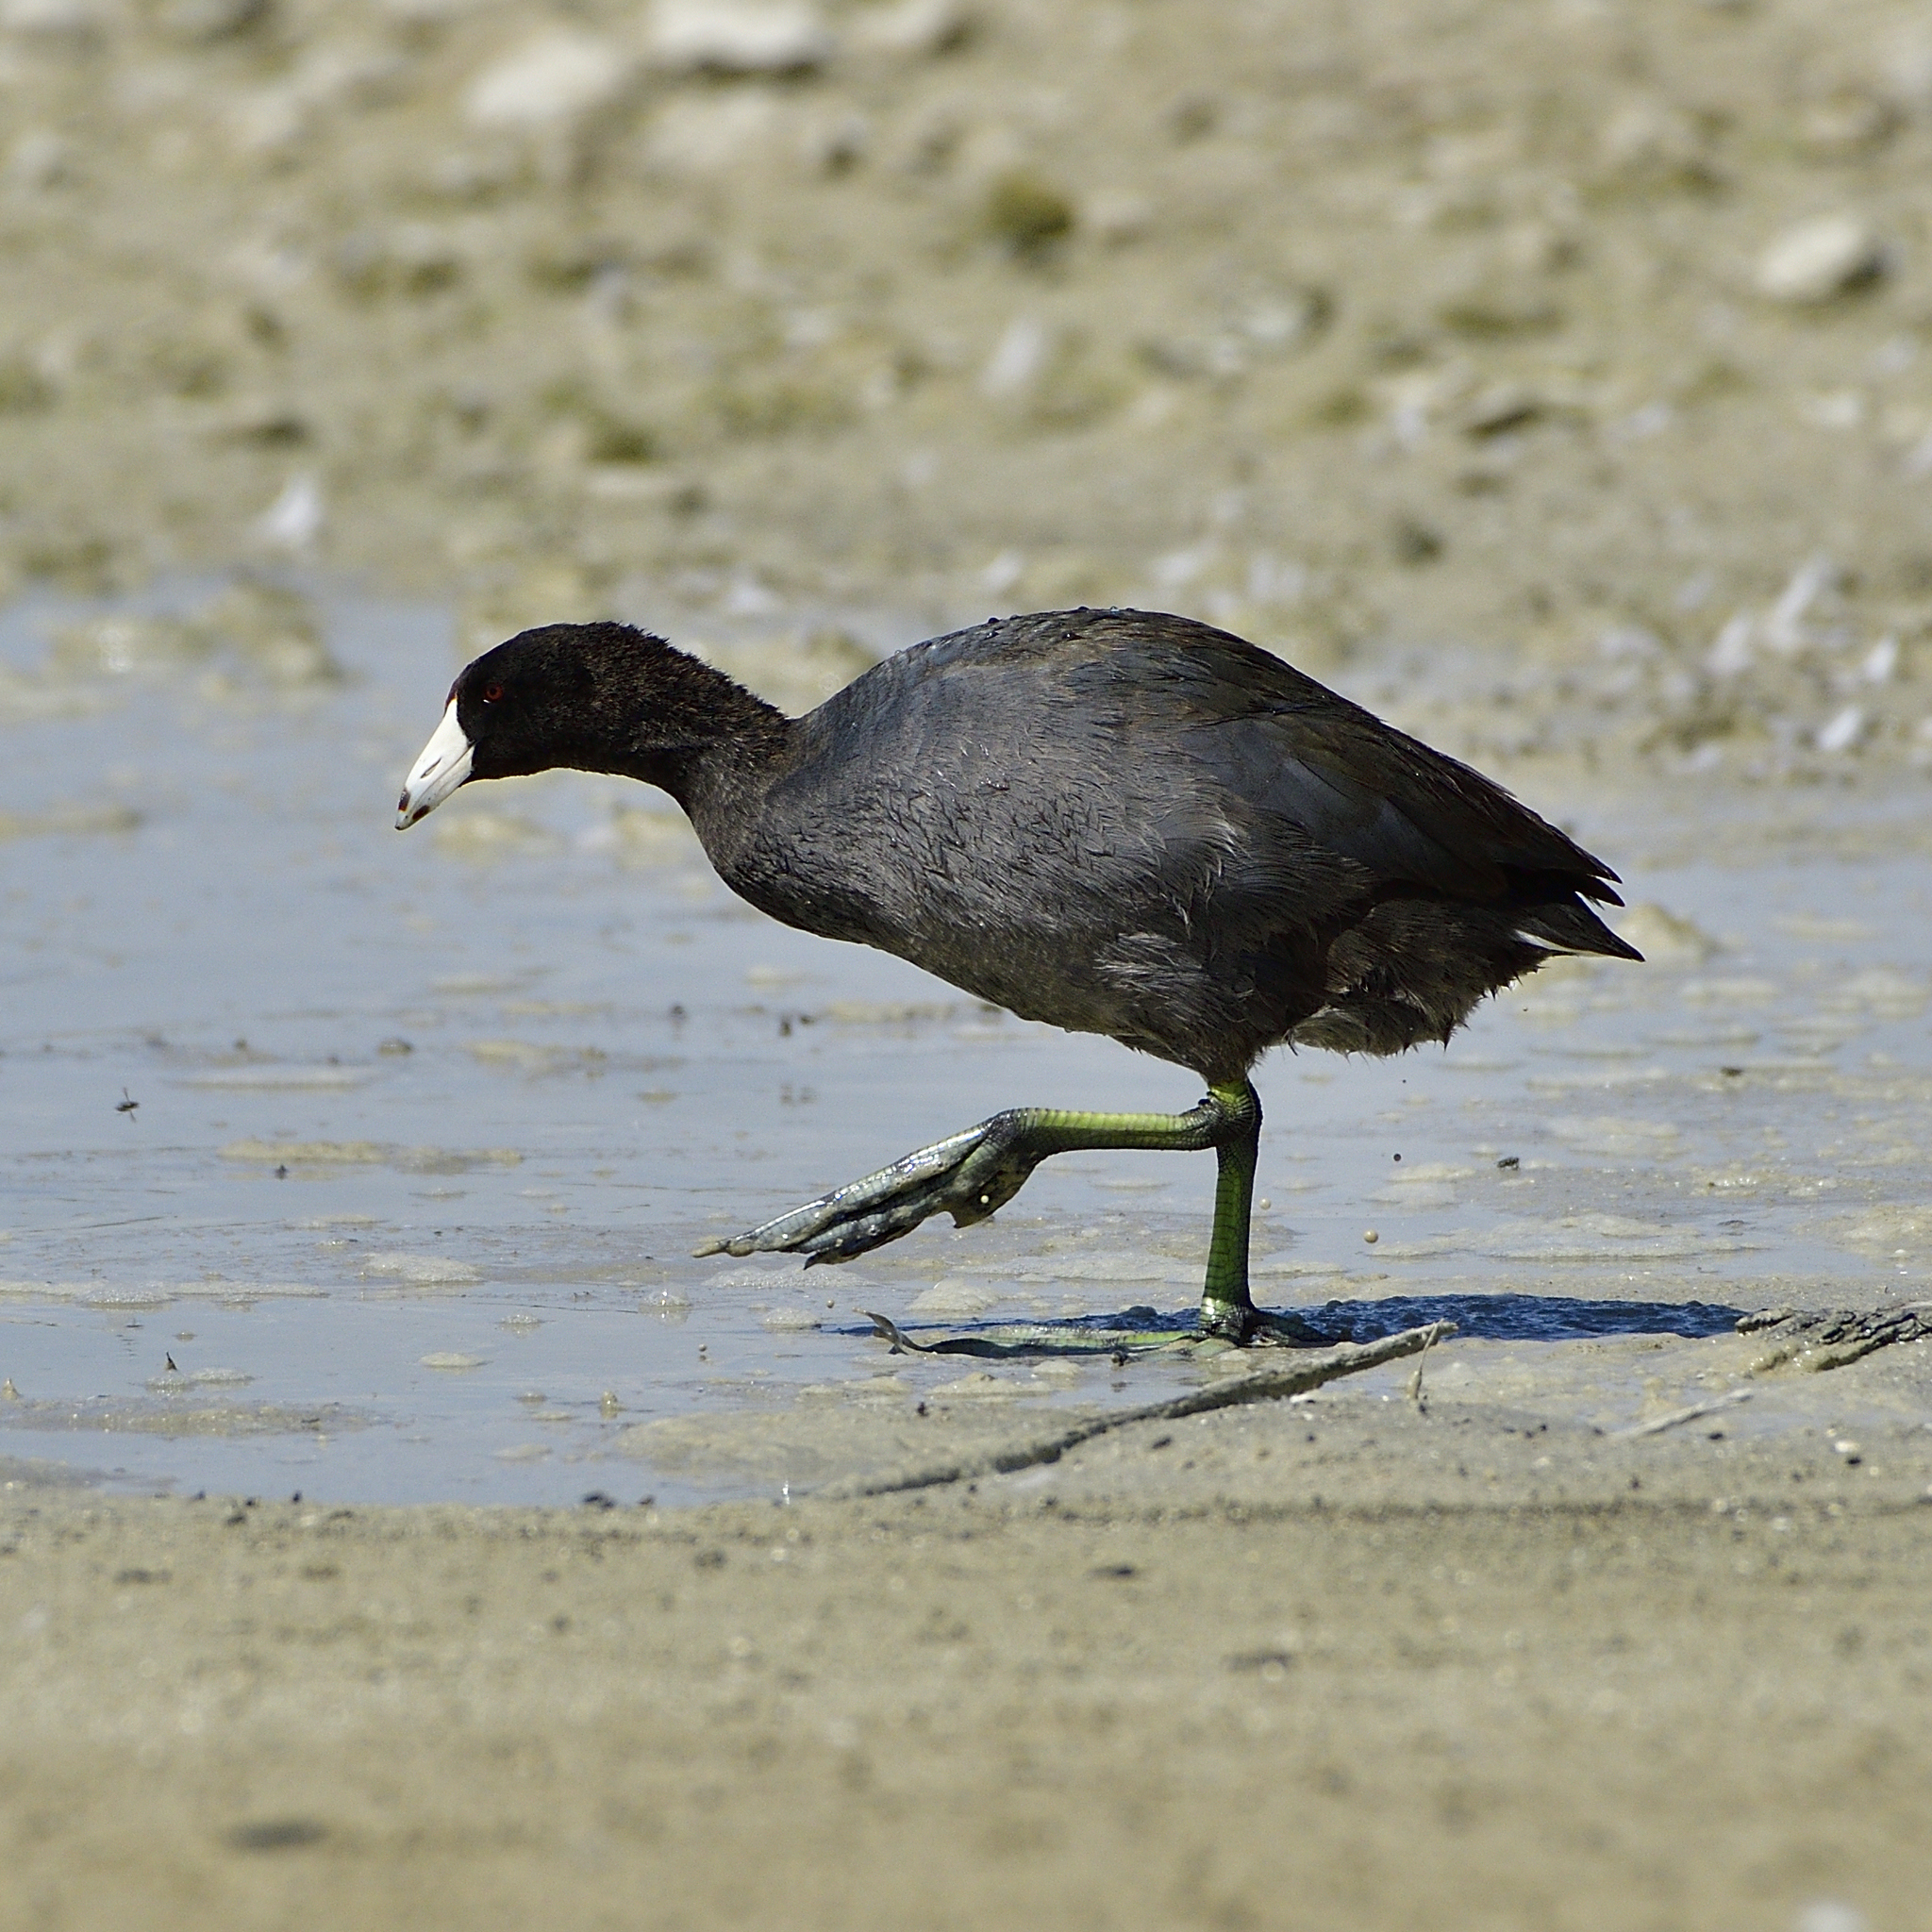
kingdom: Animalia
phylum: Chordata
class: Aves
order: Gruiformes
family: Rallidae
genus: Fulica
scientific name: Fulica americana
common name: American coot
